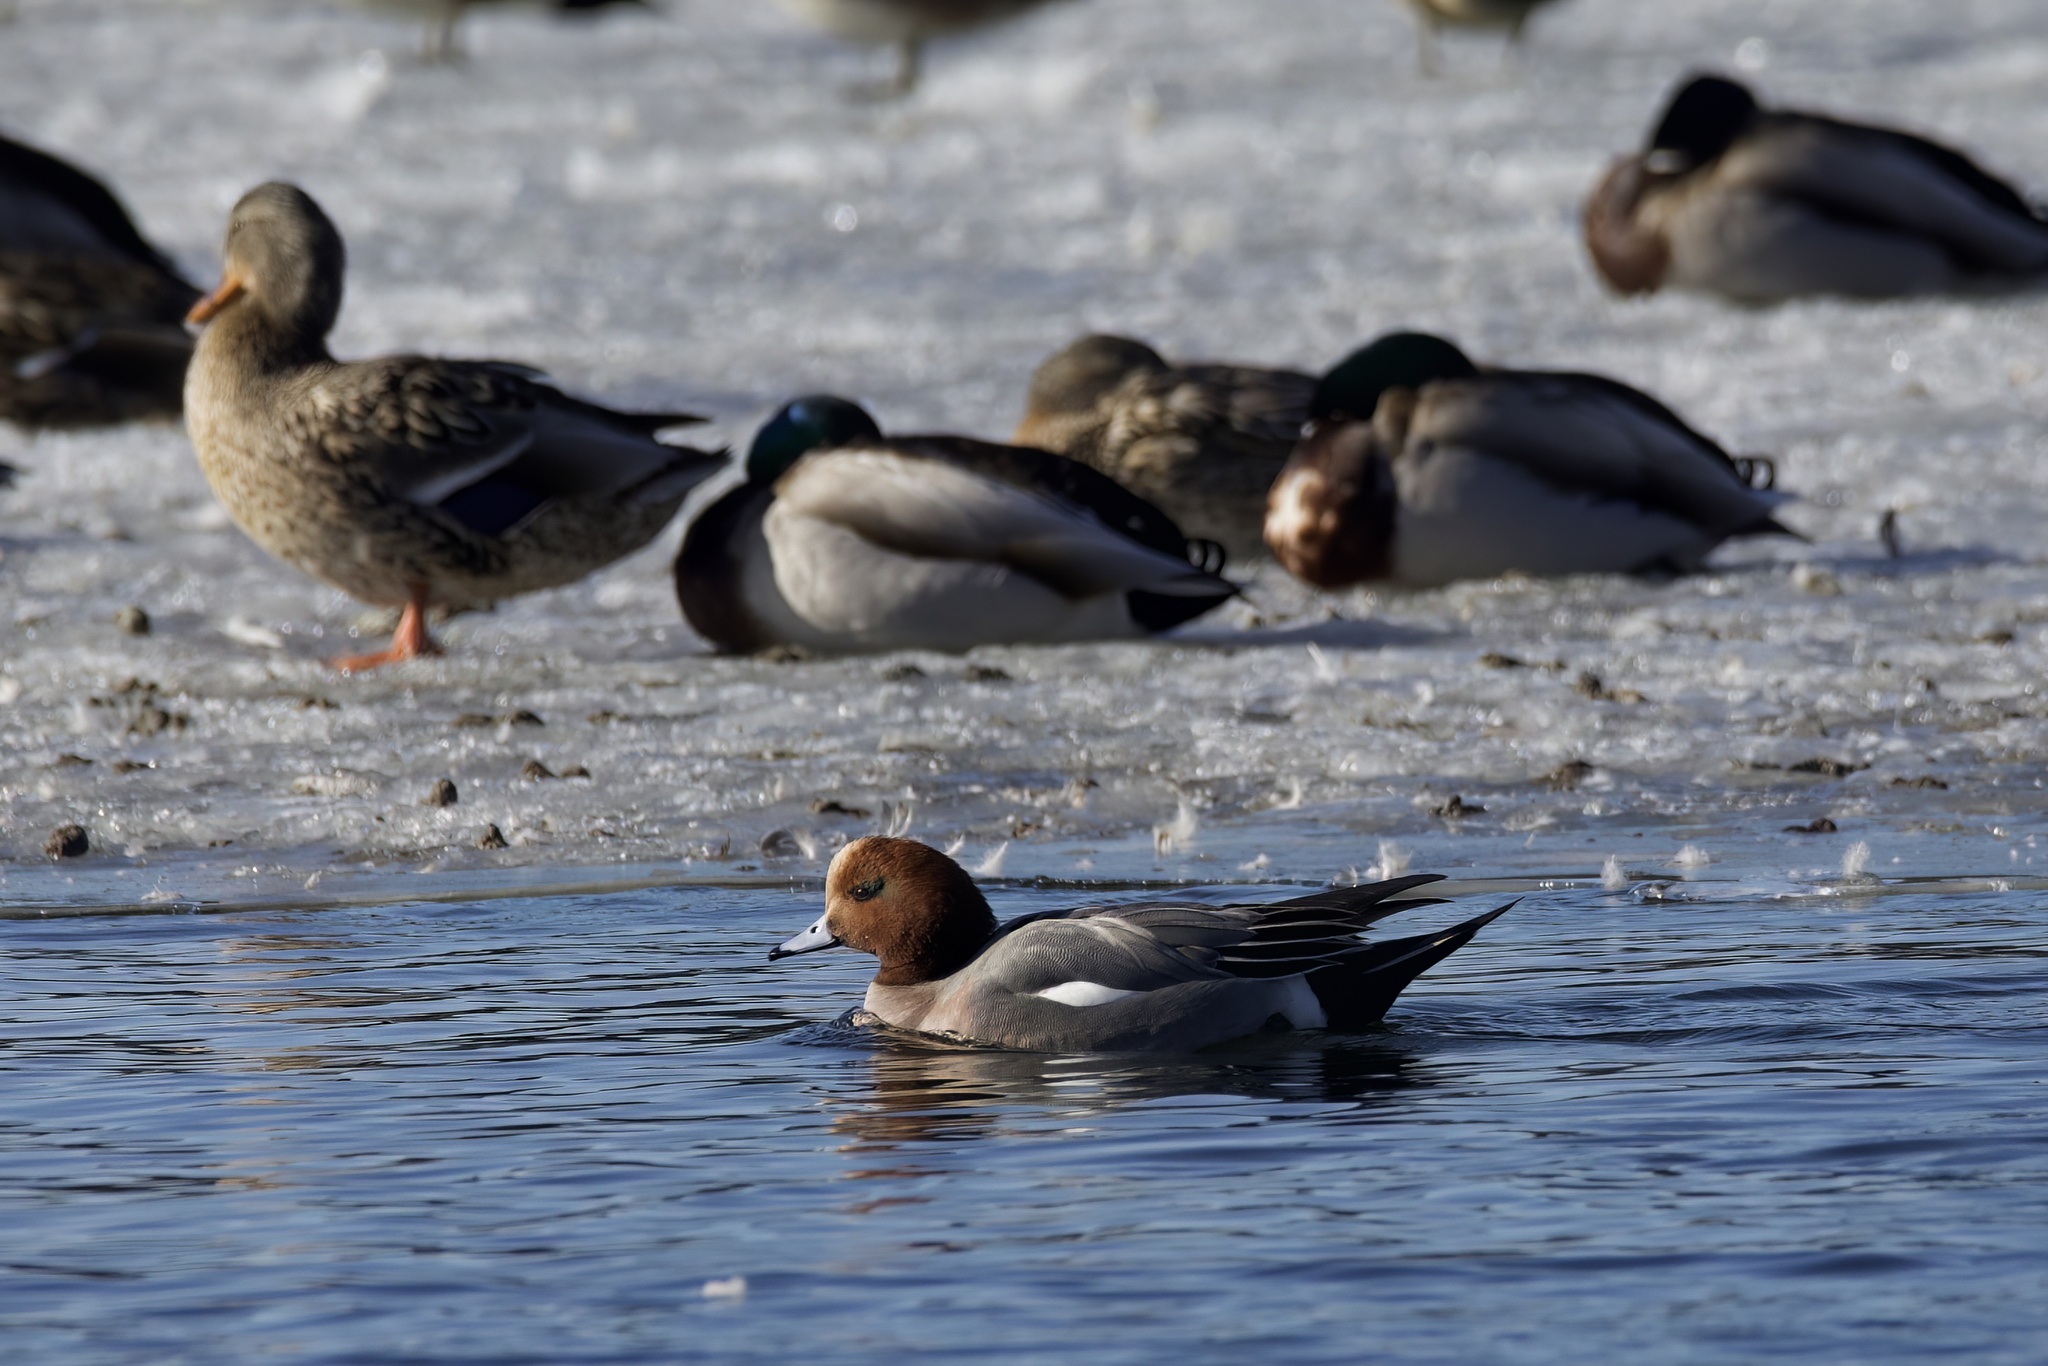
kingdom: Animalia
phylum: Chordata
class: Aves
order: Anseriformes
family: Anatidae
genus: Mareca
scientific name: Mareca penelope
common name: Eurasian wigeon
